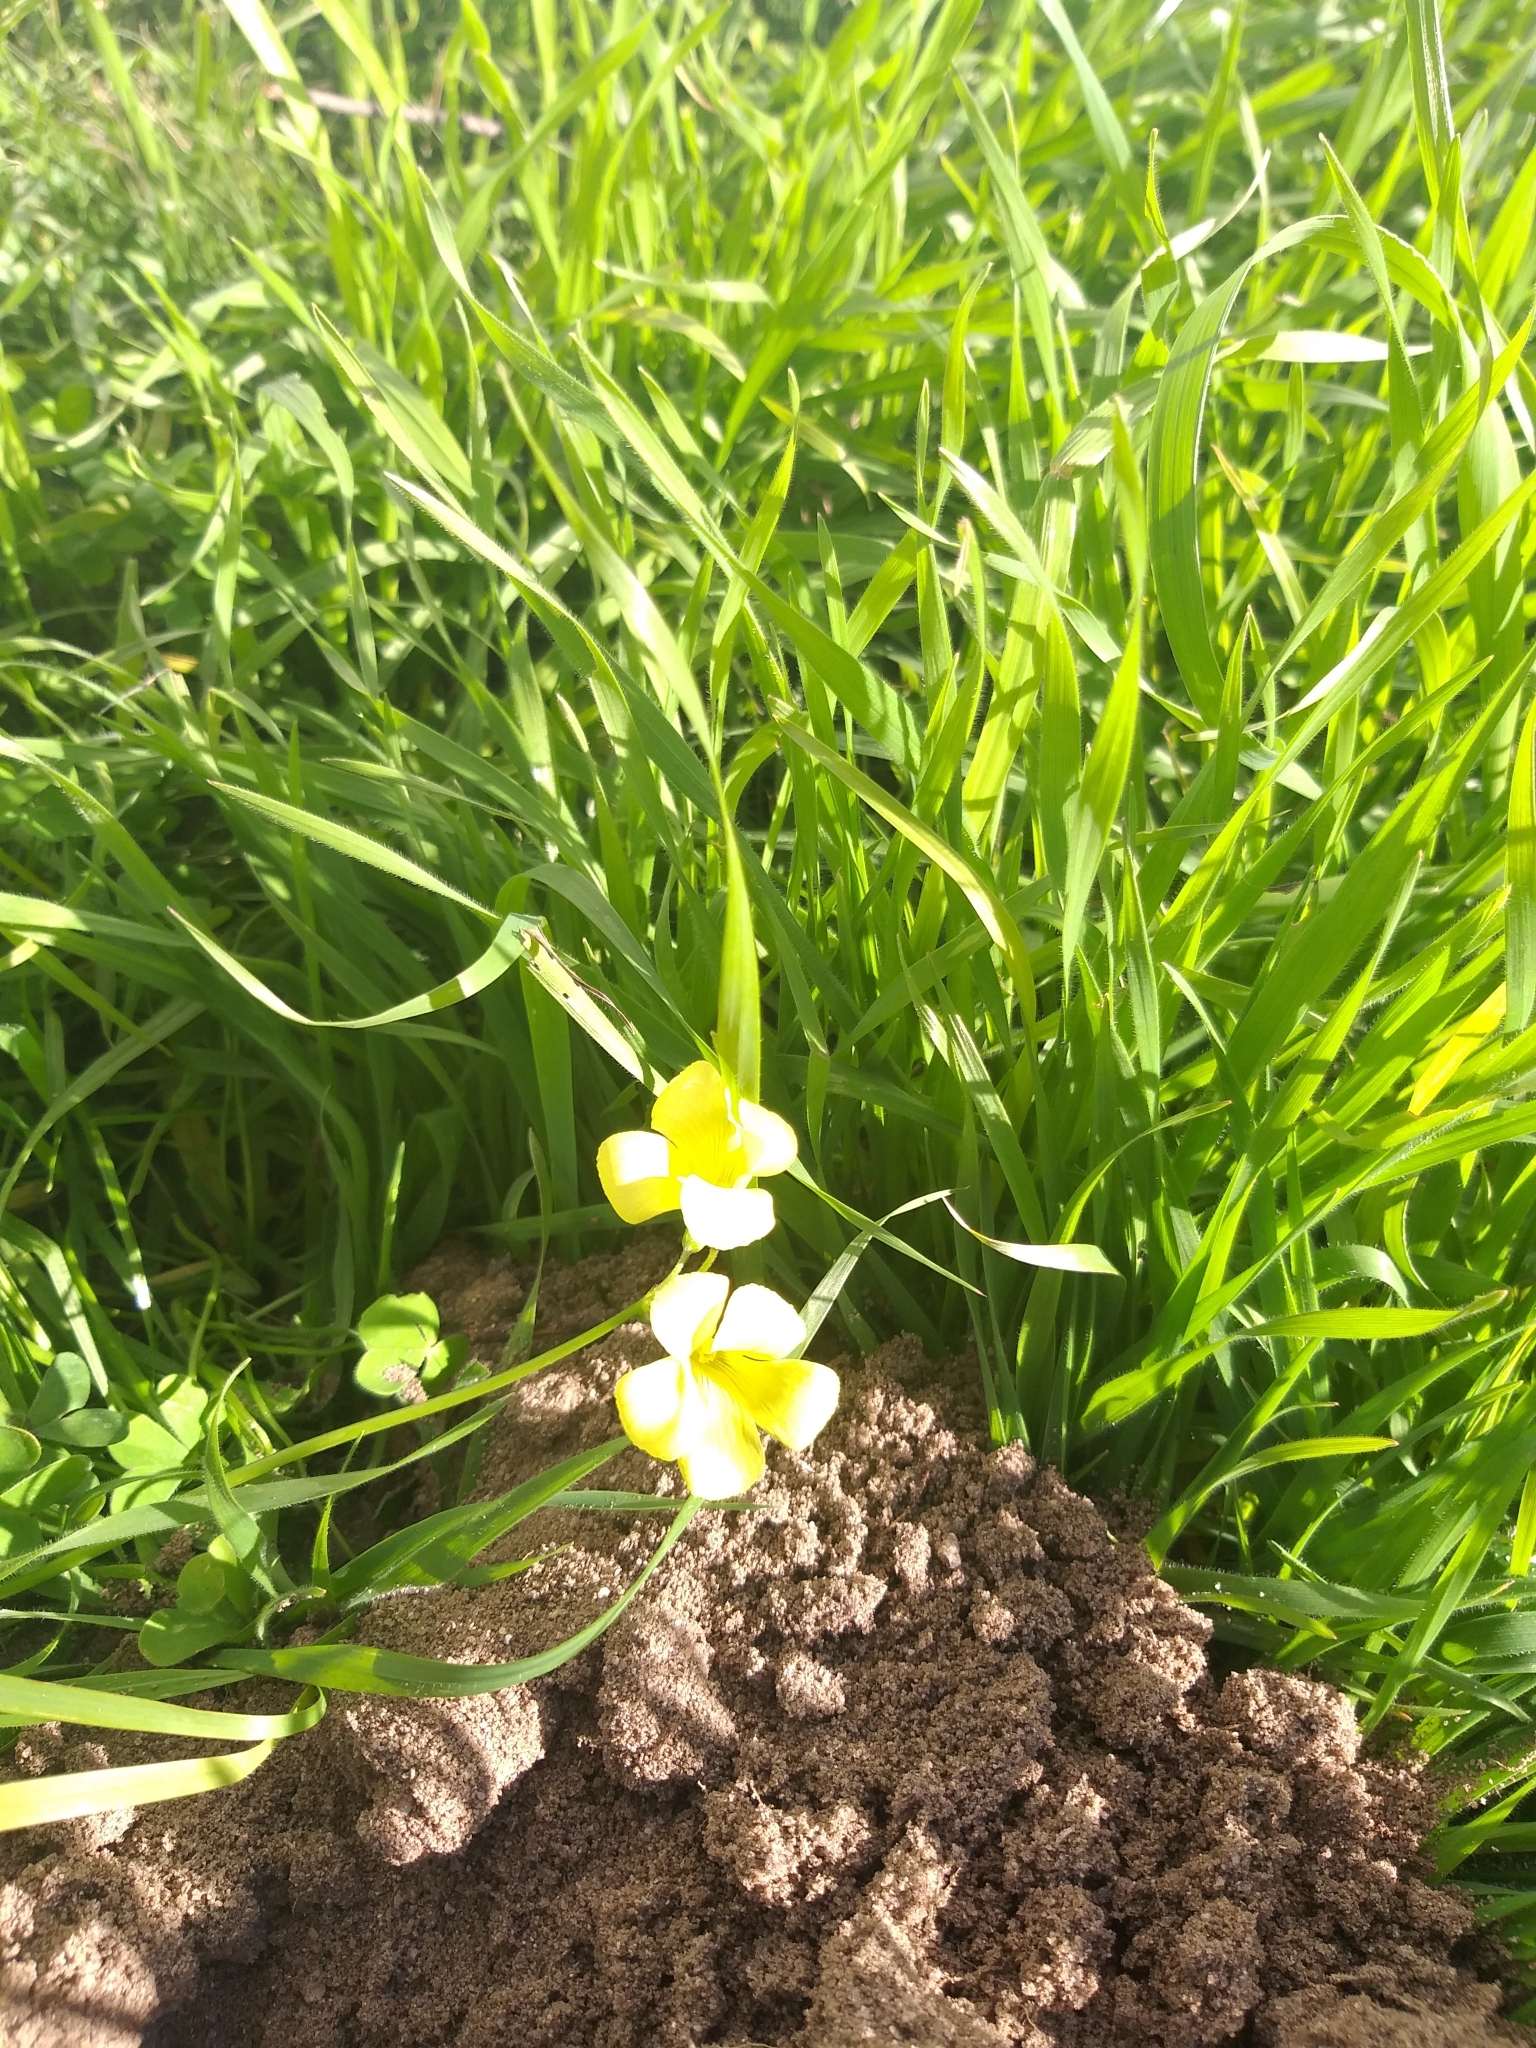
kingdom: Plantae
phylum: Tracheophyta
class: Magnoliopsida
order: Oxalidales
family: Oxalidaceae
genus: Oxalis
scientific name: Oxalis pes-caprae
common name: Bermuda-buttercup
